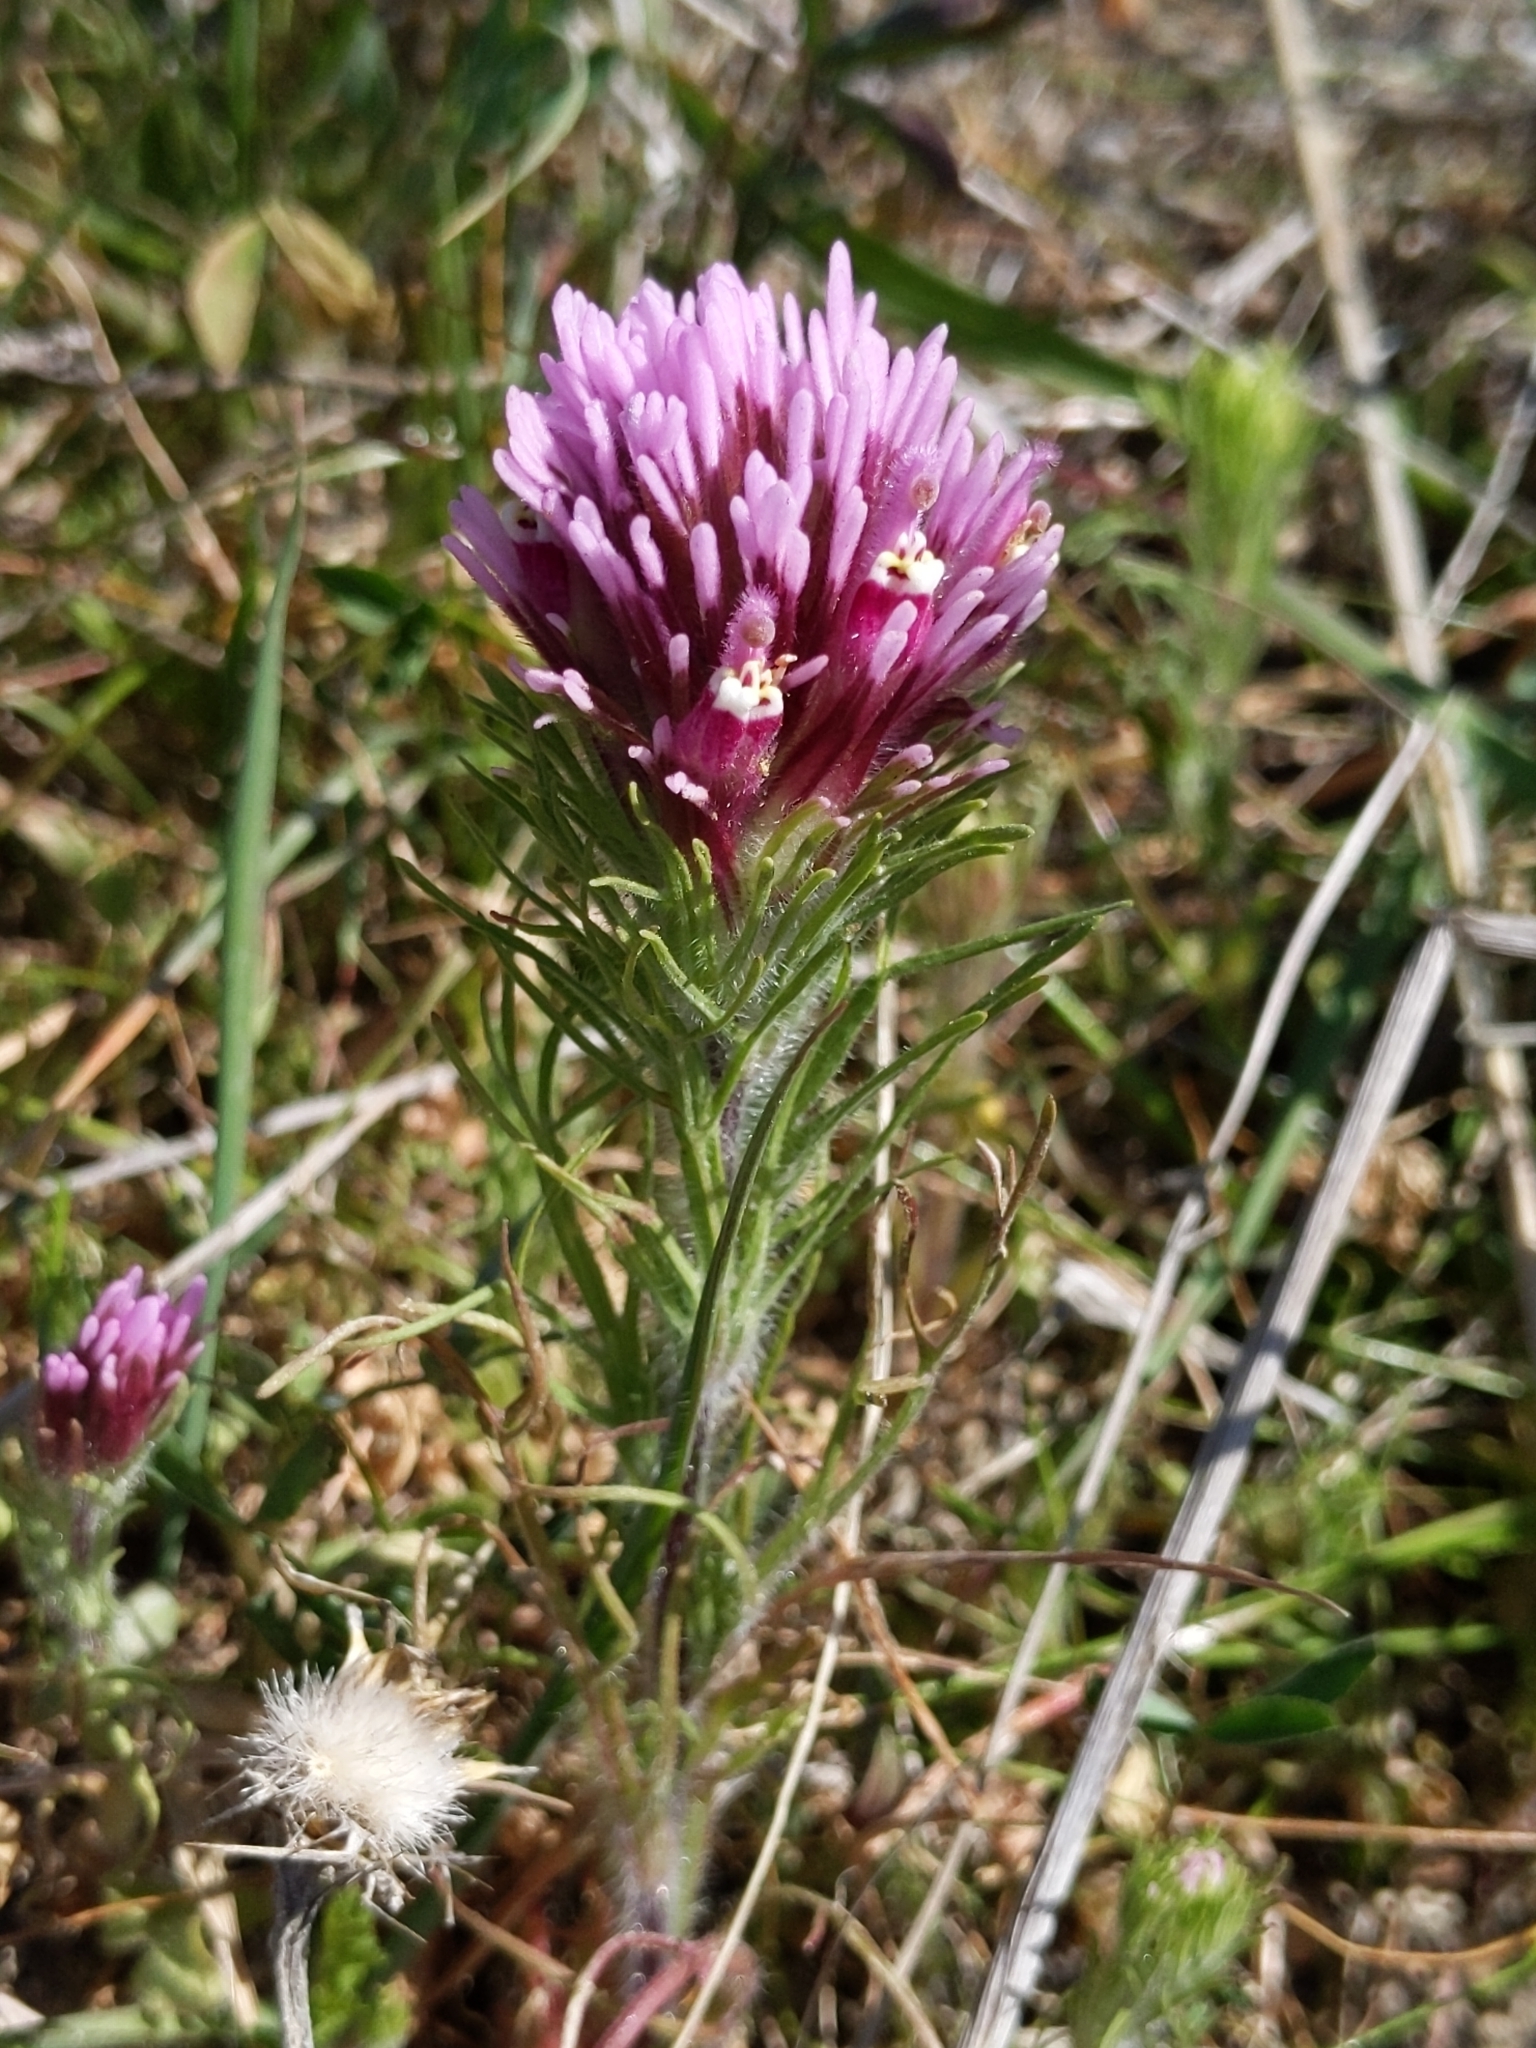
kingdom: Plantae
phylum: Tracheophyta
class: Magnoliopsida
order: Lamiales
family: Orobanchaceae
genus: Castilleja
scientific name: Castilleja exserta
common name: Purple owl-clover
